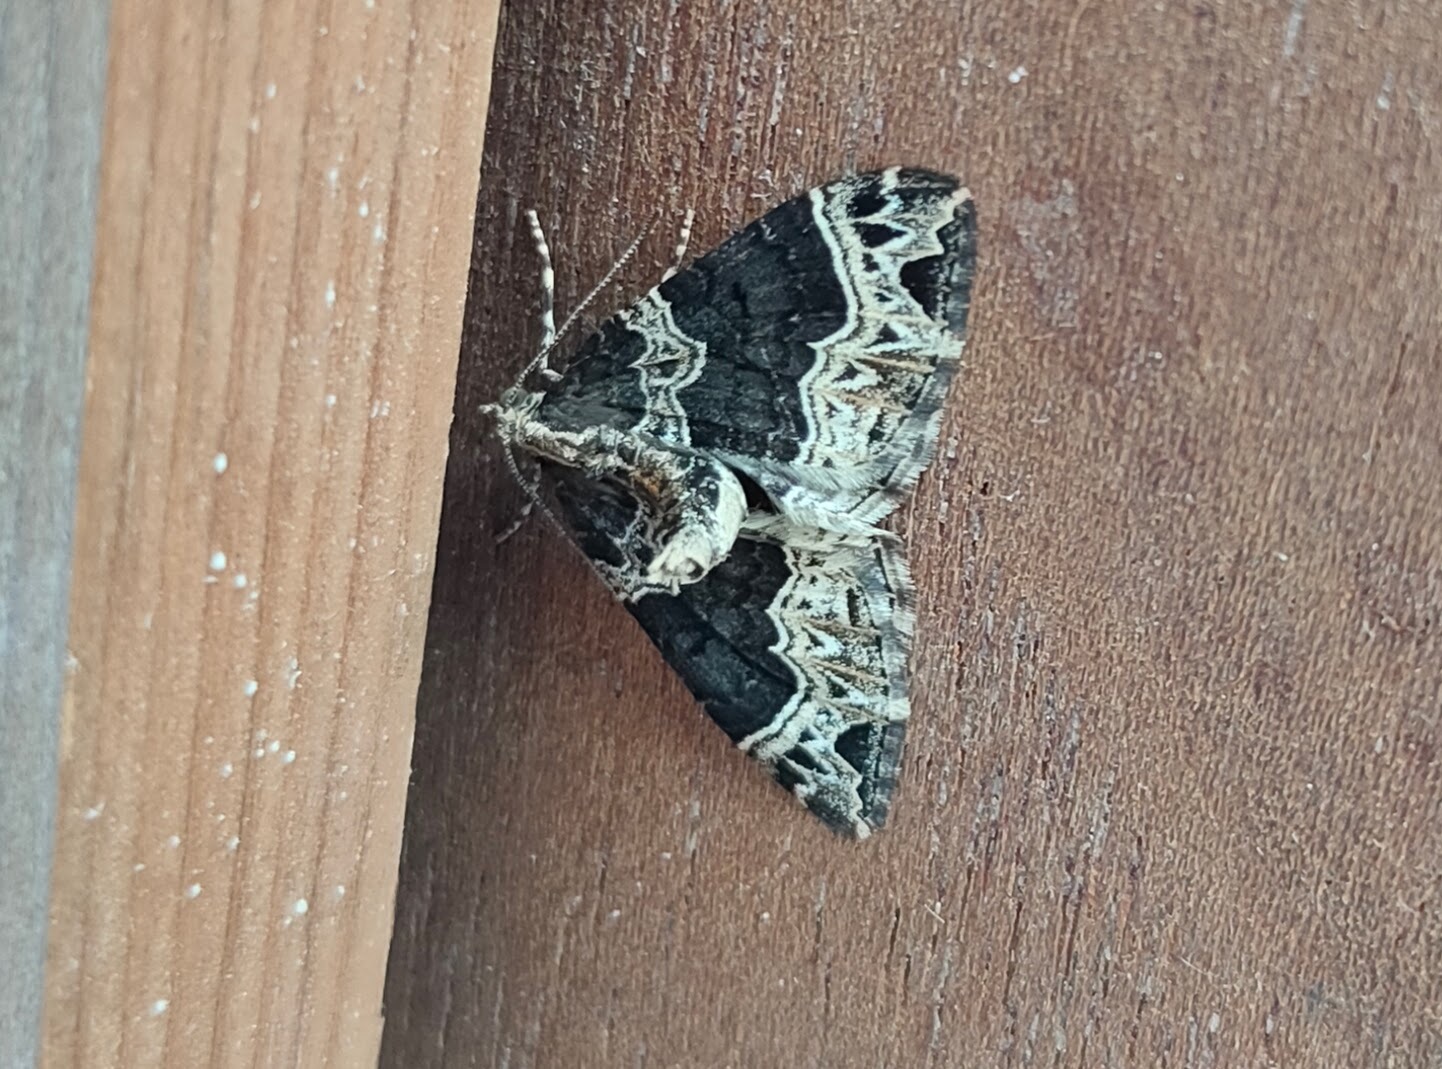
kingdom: Animalia
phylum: Arthropoda
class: Insecta
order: Lepidoptera
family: Geometridae
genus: Ecliptopera
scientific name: Ecliptopera silaceata
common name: Small phoenix
